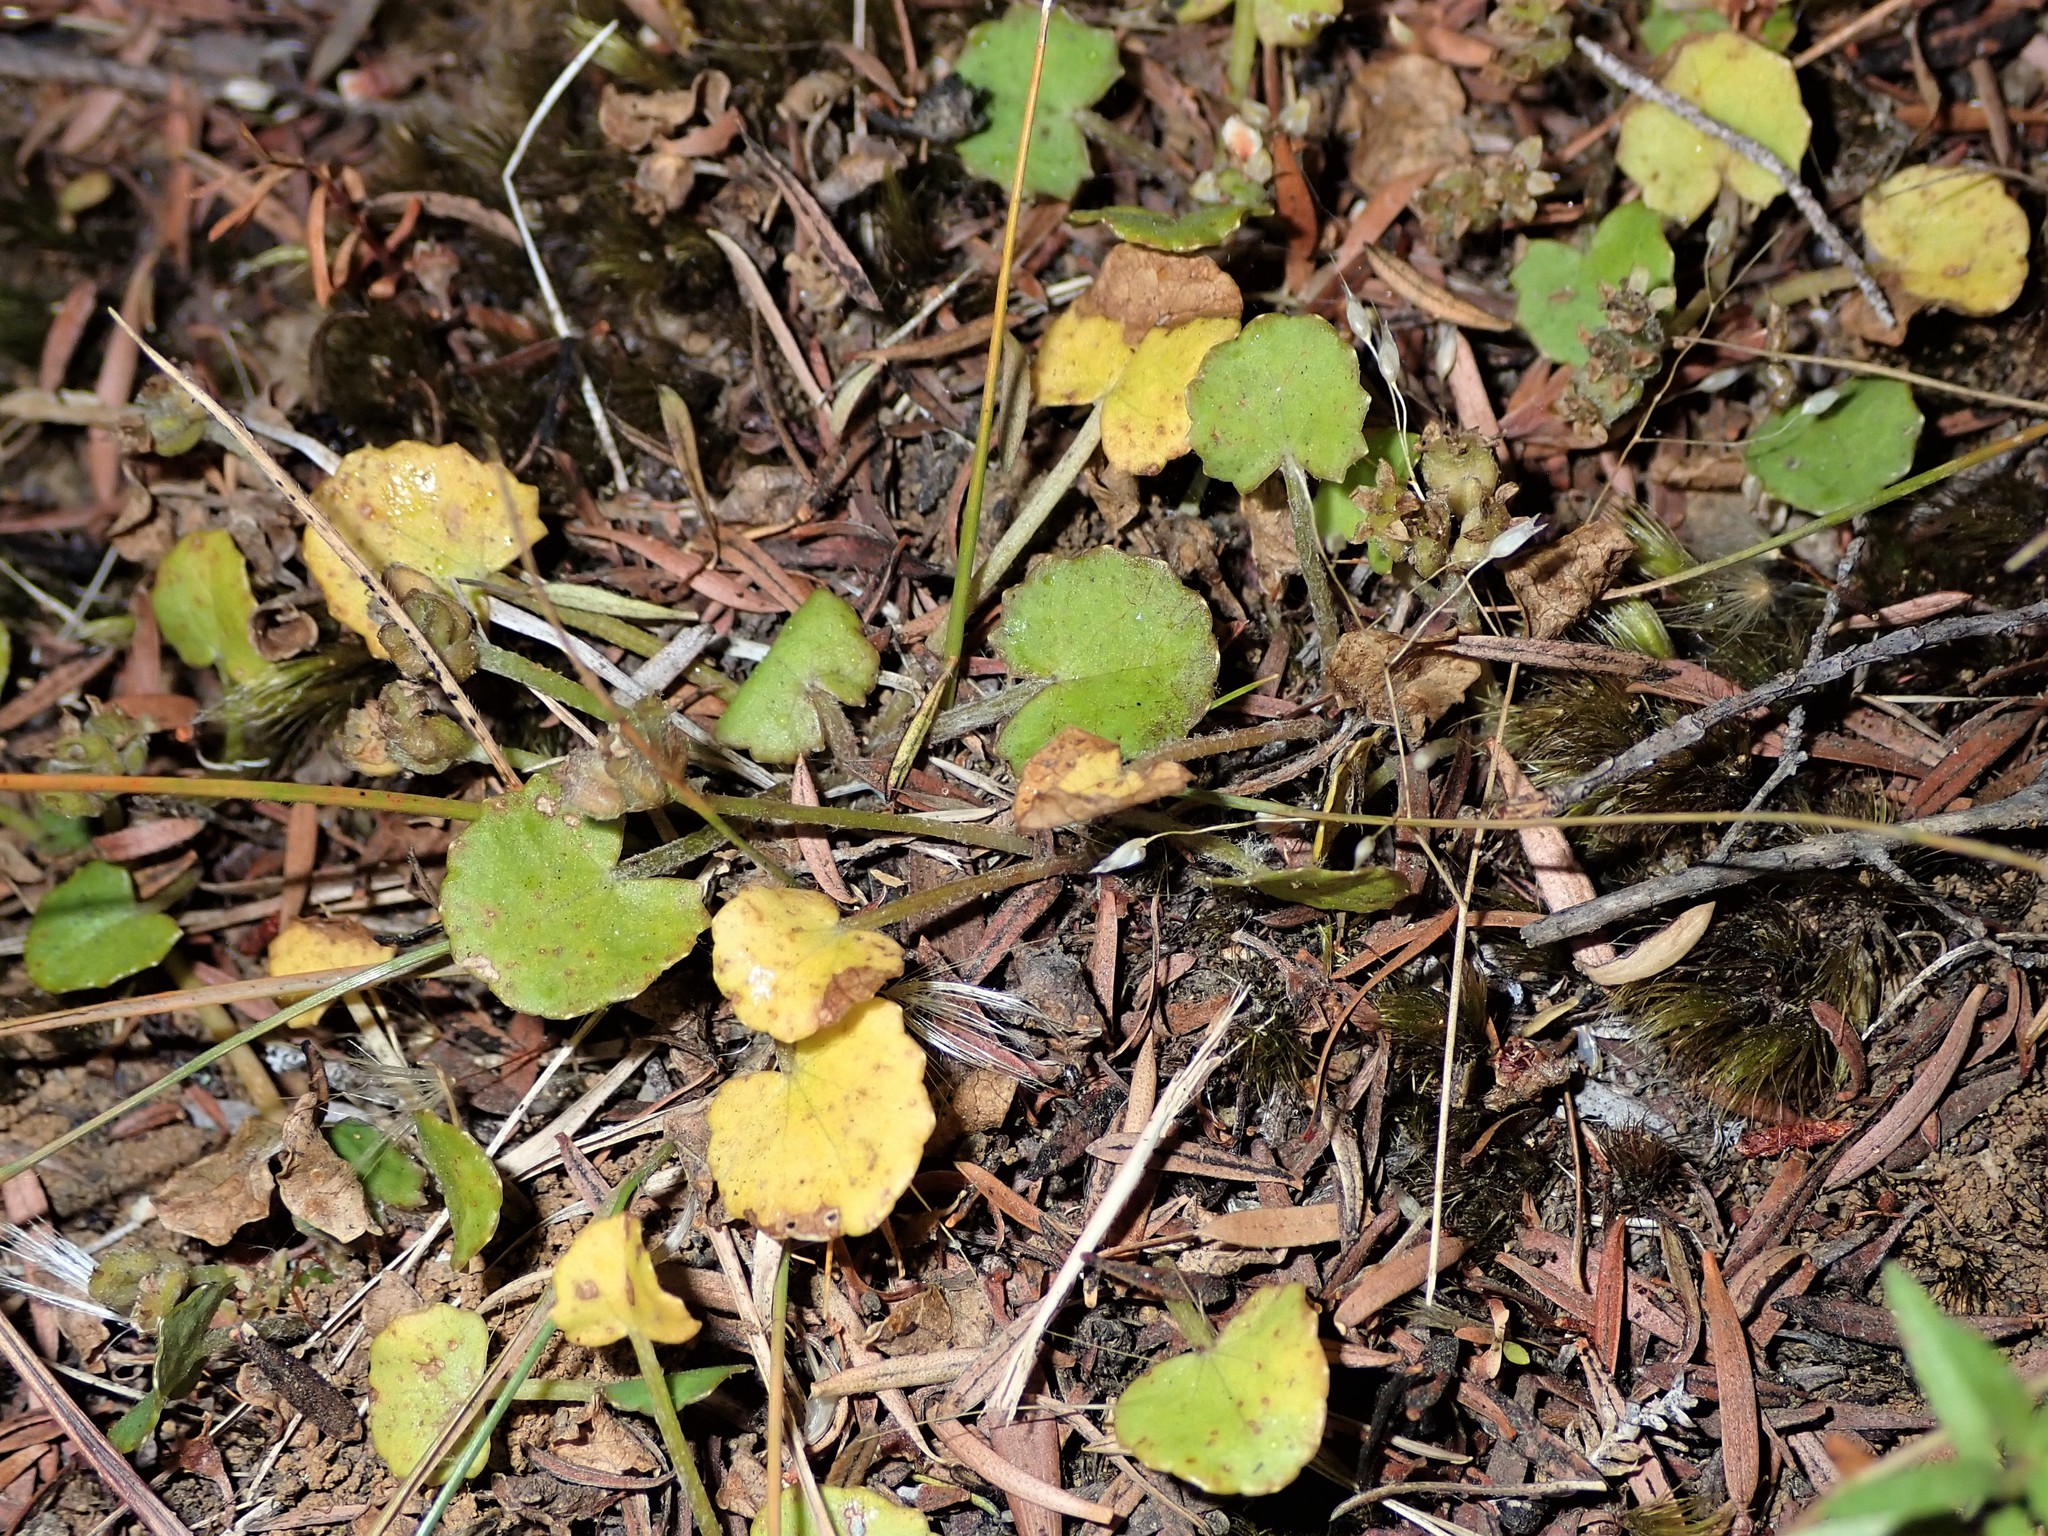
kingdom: Plantae
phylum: Tracheophyta
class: Magnoliopsida
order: Apiales
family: Apiaceae
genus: Centella
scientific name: Centella uniflora
